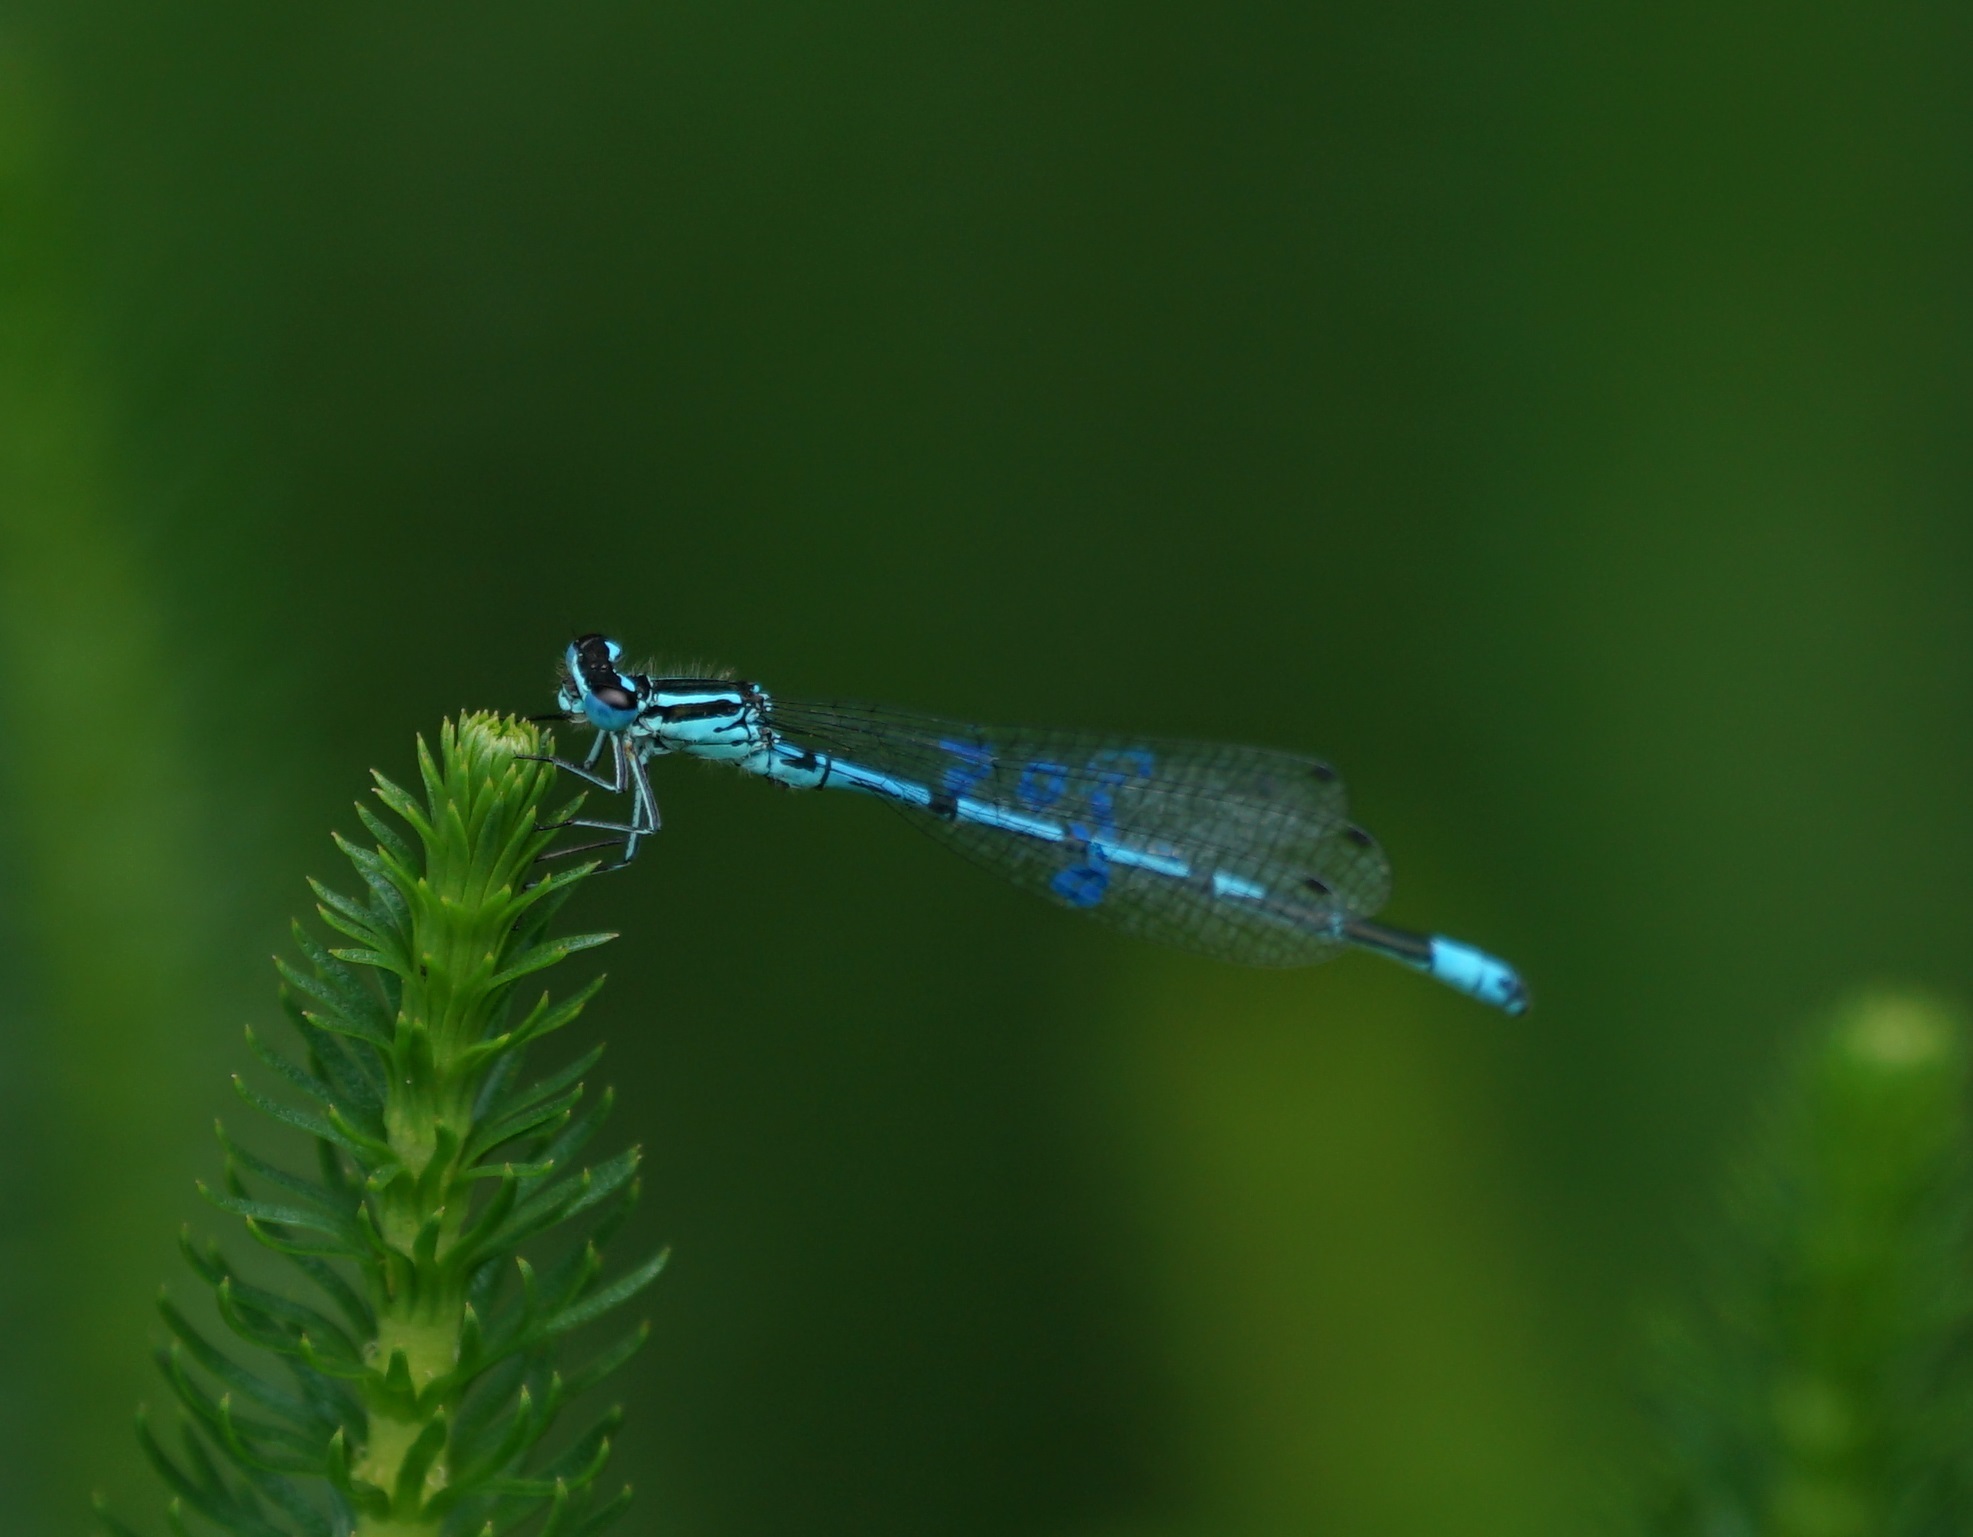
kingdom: Animalia
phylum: Arthropoda
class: Insecta
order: Odonata
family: Coenagrionidae
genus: Coenagrion
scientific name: Coenagrion puella
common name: Azure damselfly
